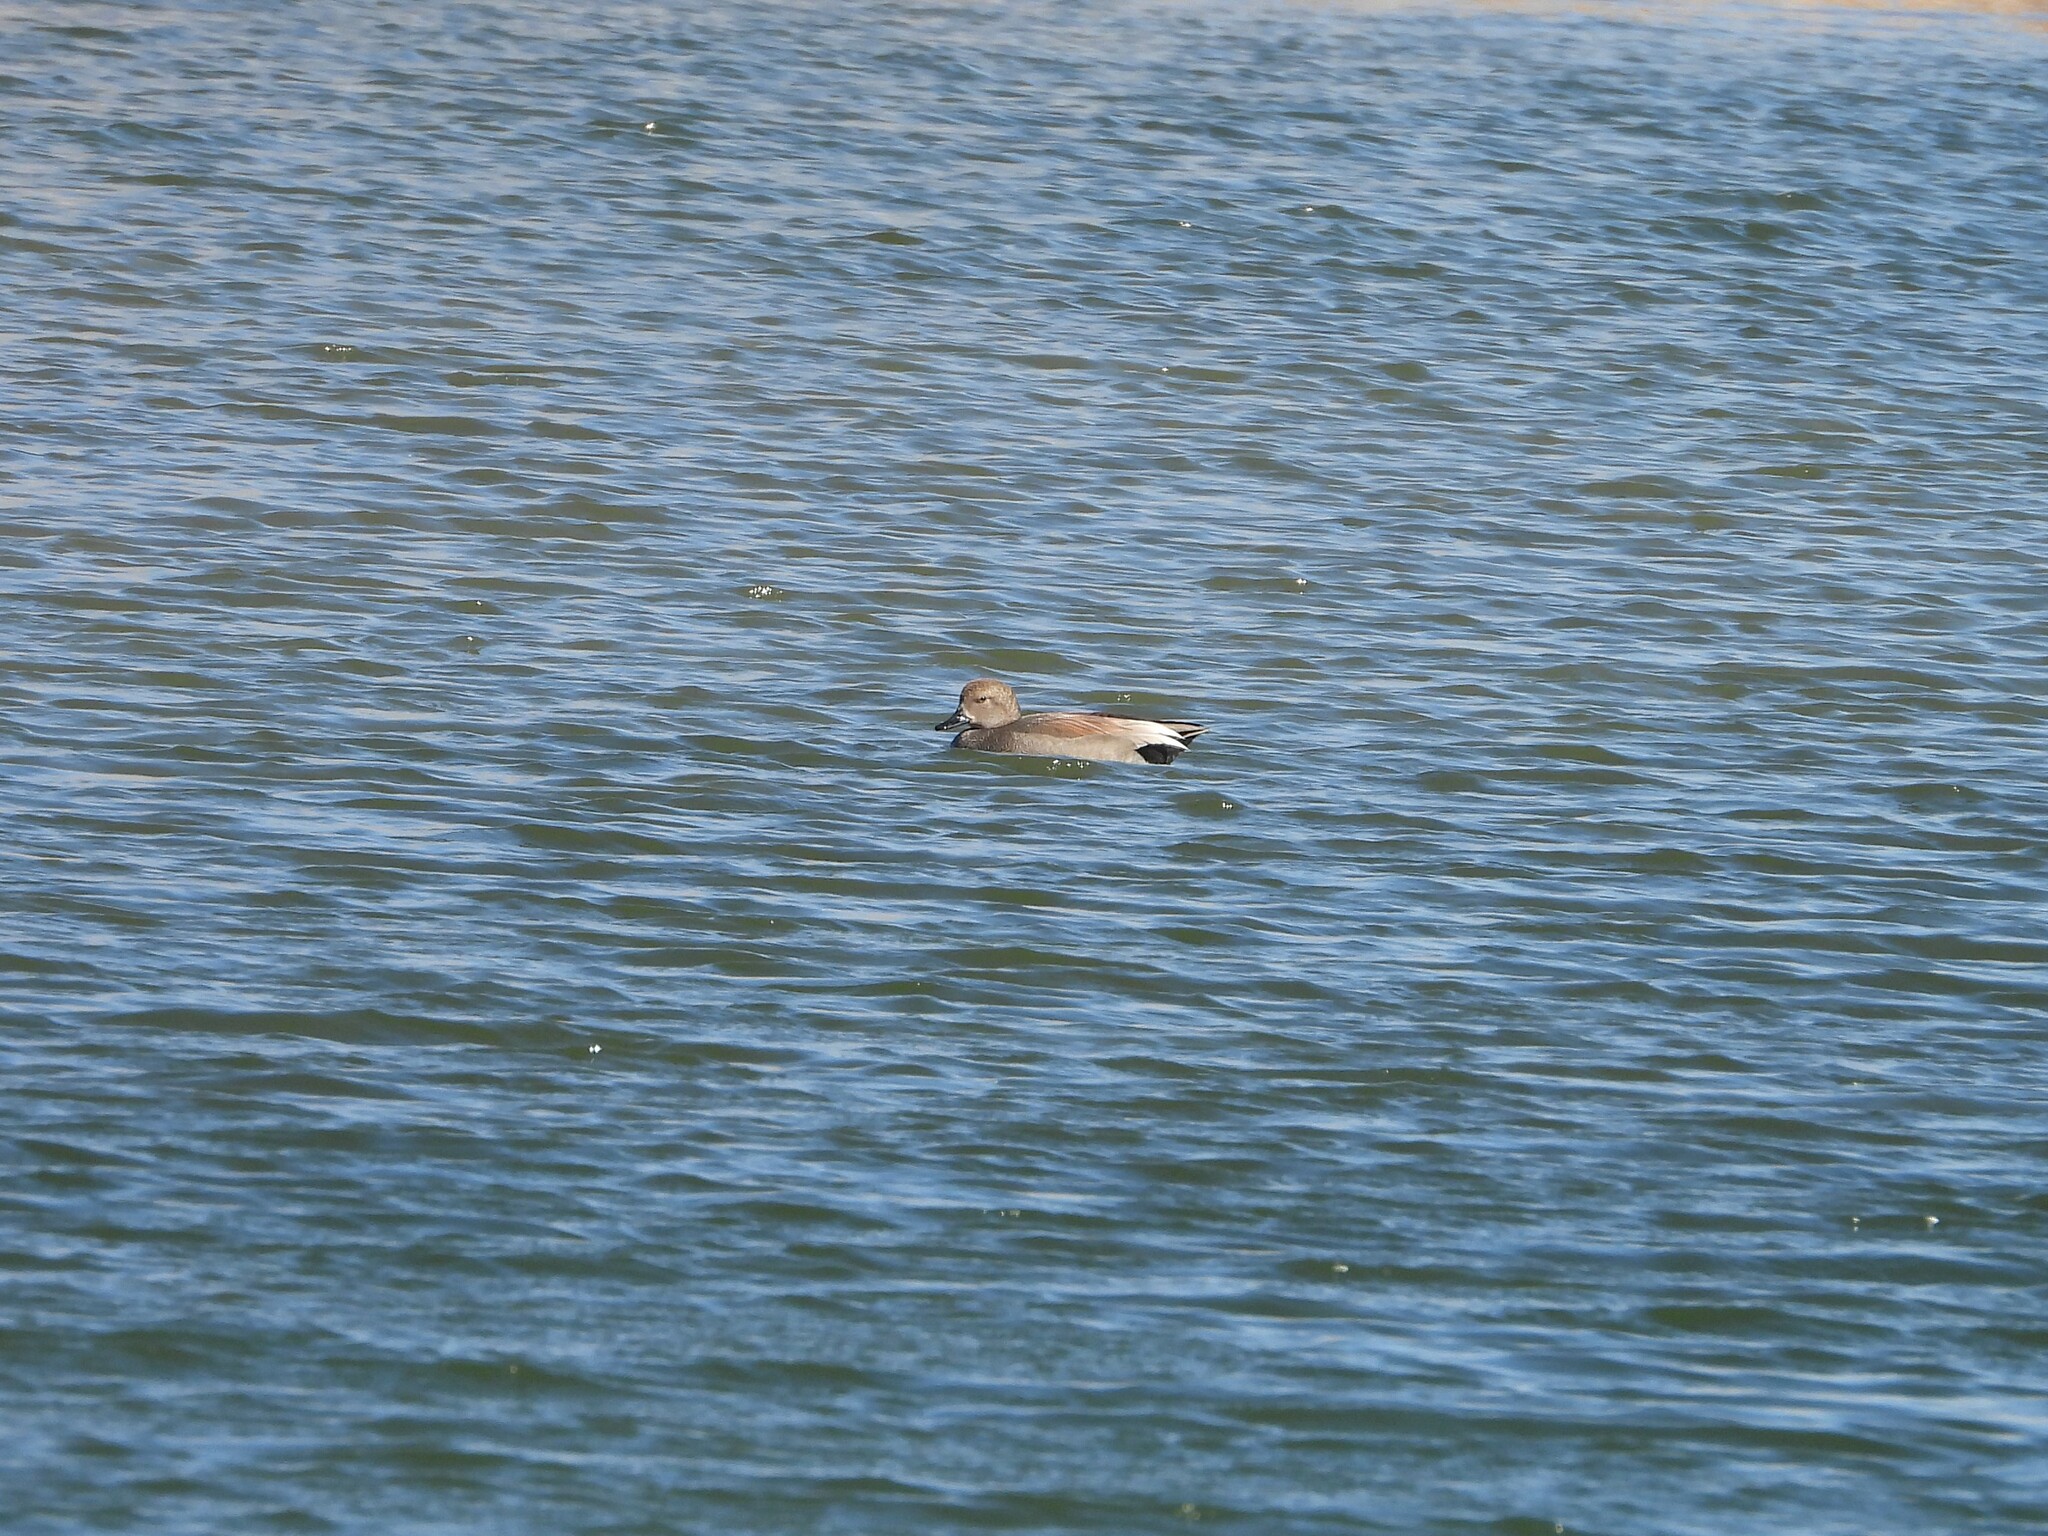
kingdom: Animalia
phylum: Chordata
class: Aves
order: Anseriformes
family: Anatidae
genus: Mareca
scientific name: Mareca strepera
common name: Gadwall
